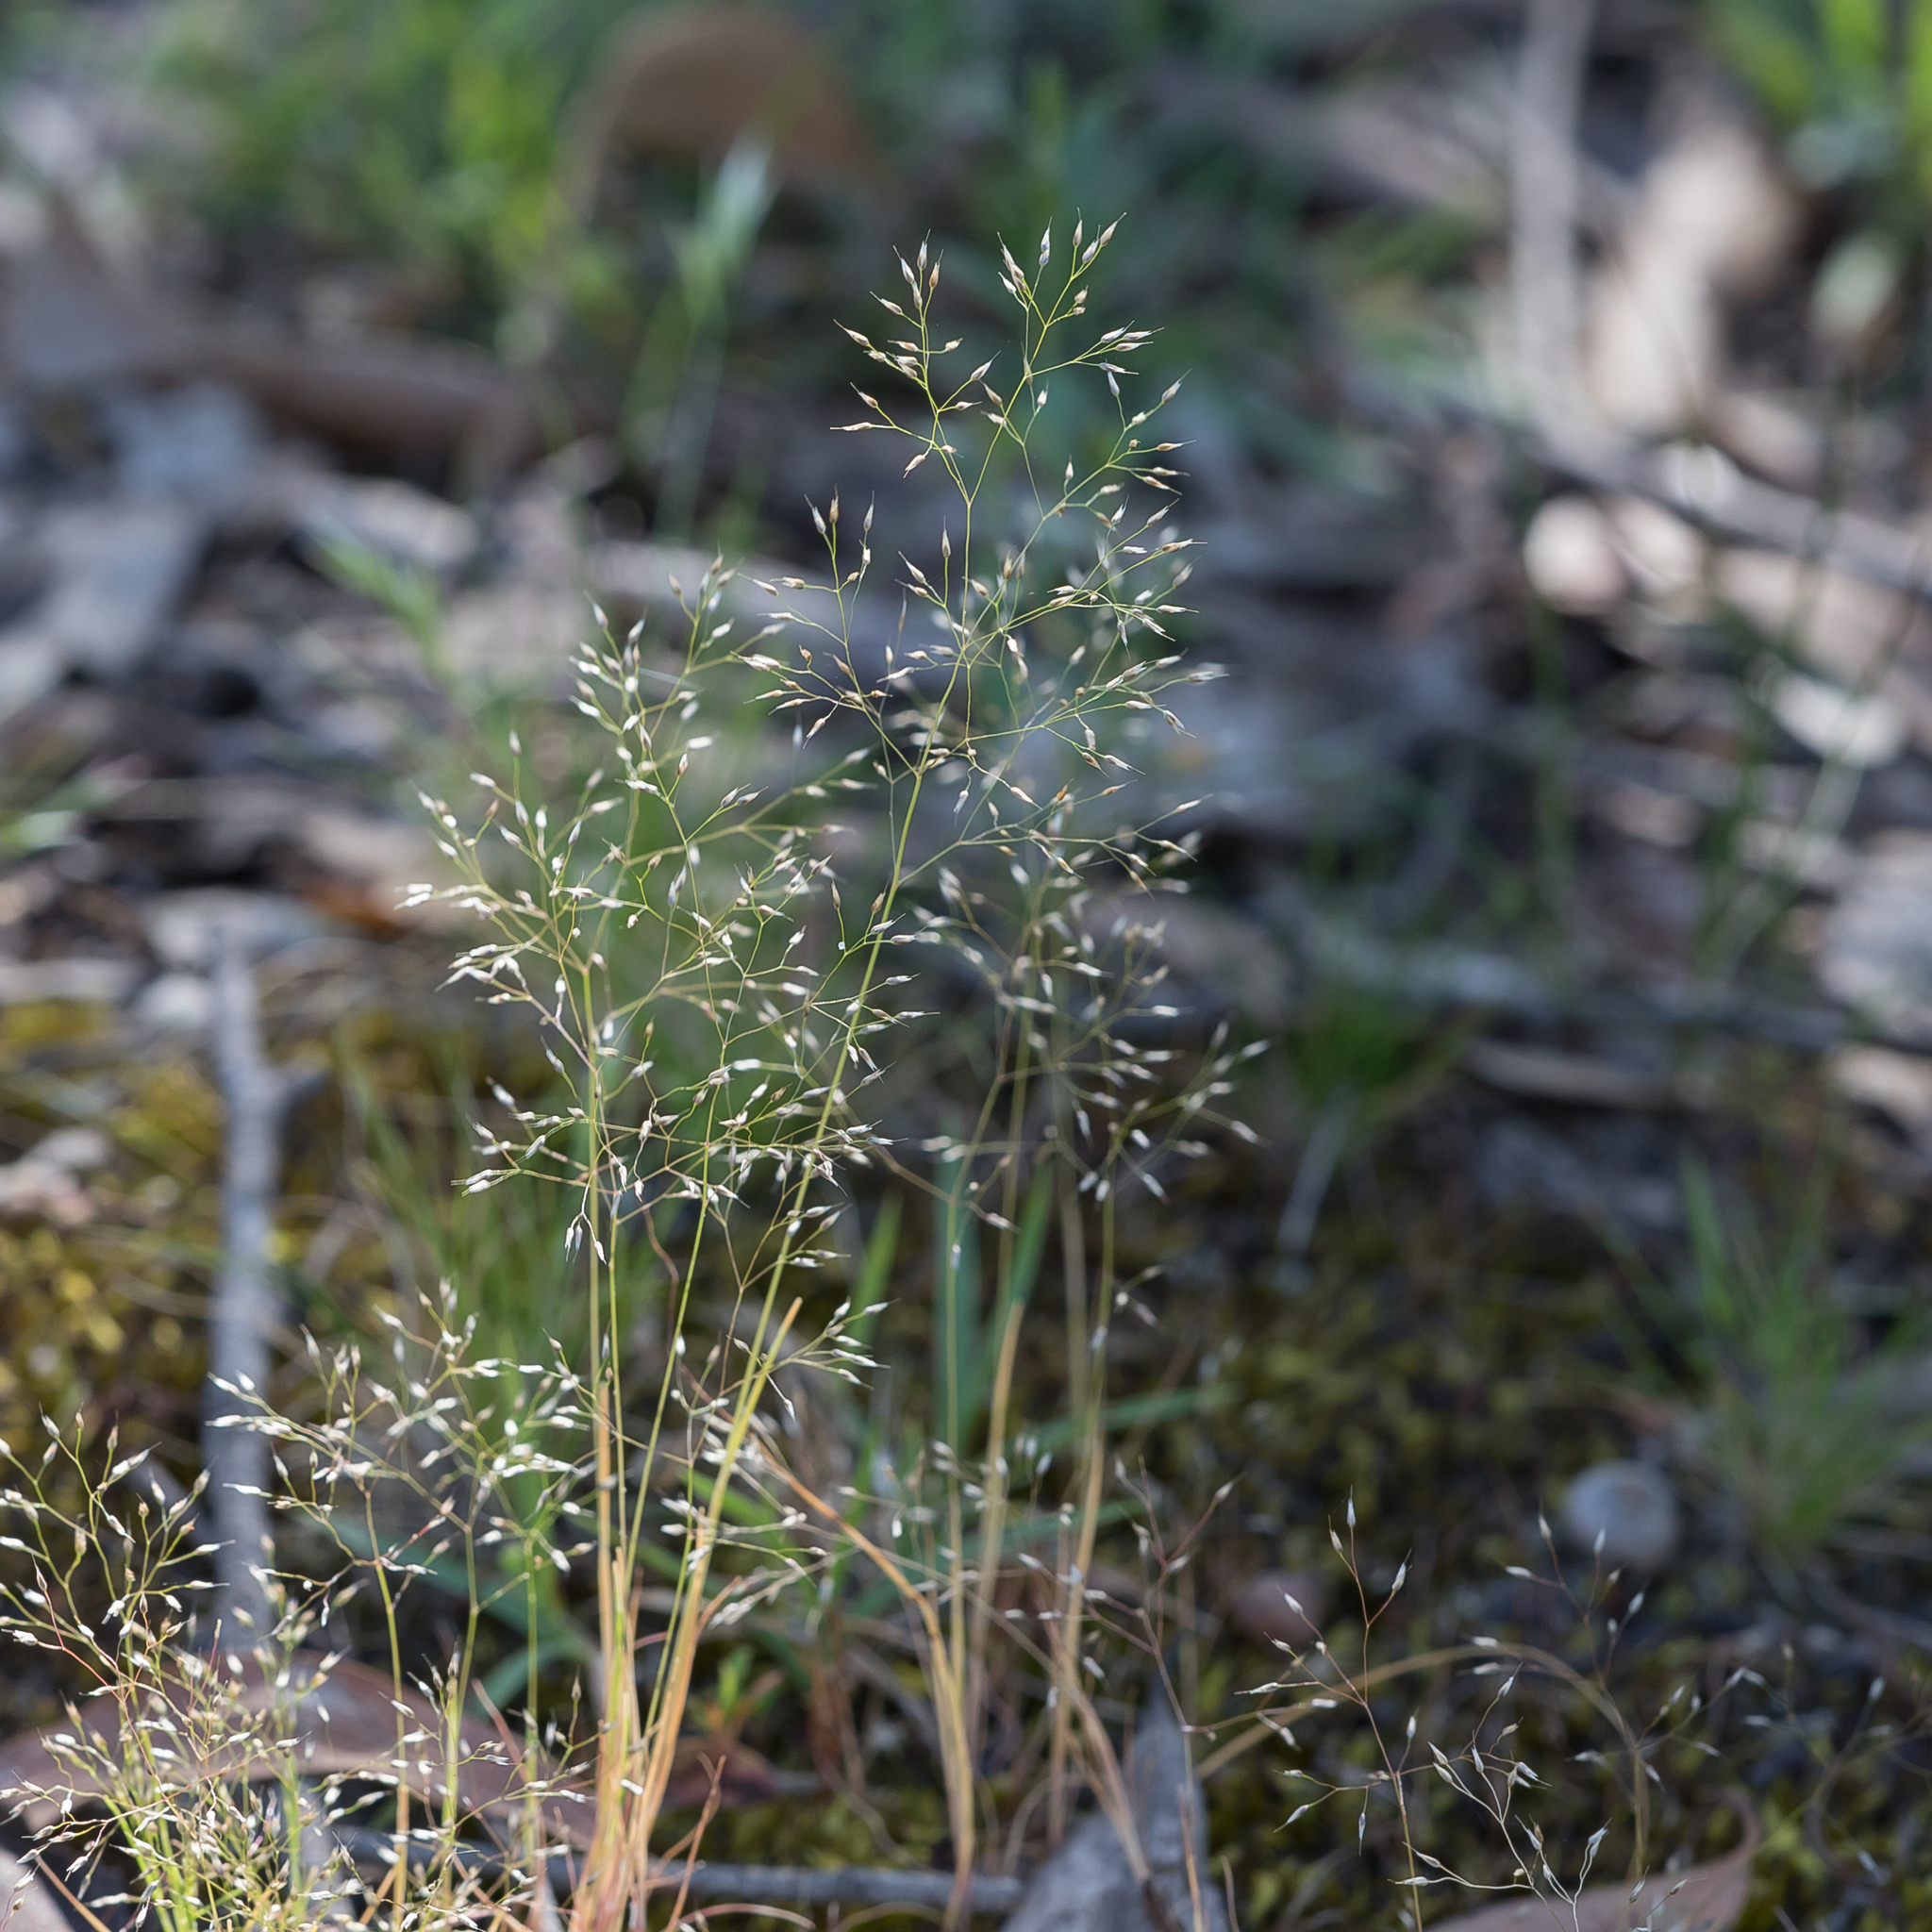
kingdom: Plantae
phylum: Tracheophyta
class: Liliopsida
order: Poales
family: Poaceae
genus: Aira
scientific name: Aira cupaniana
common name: Silver hairgrass
